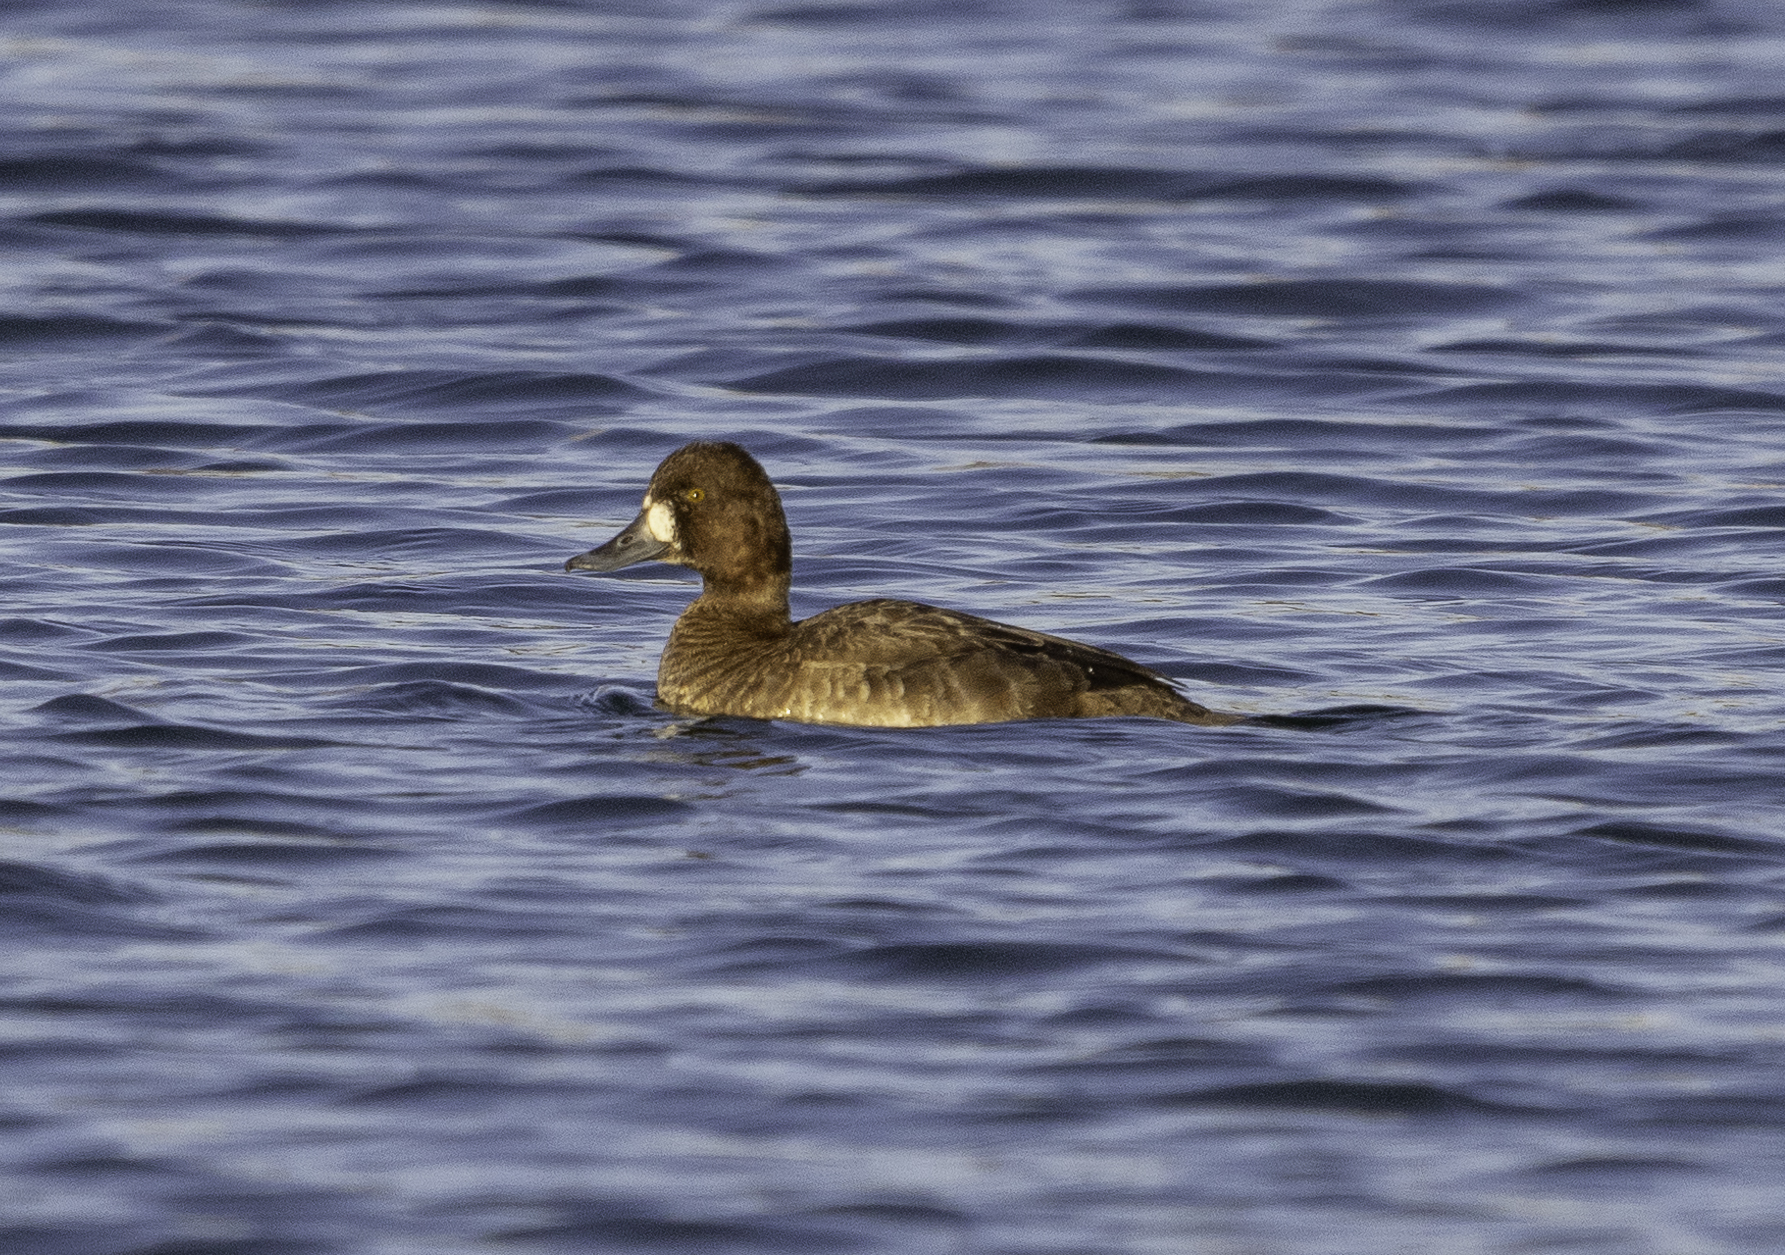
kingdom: Animalia
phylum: Chordata
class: Aves
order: Anseriformes
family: Anatidae
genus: Aythya
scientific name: Aythya affinis
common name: Lesser scaup
